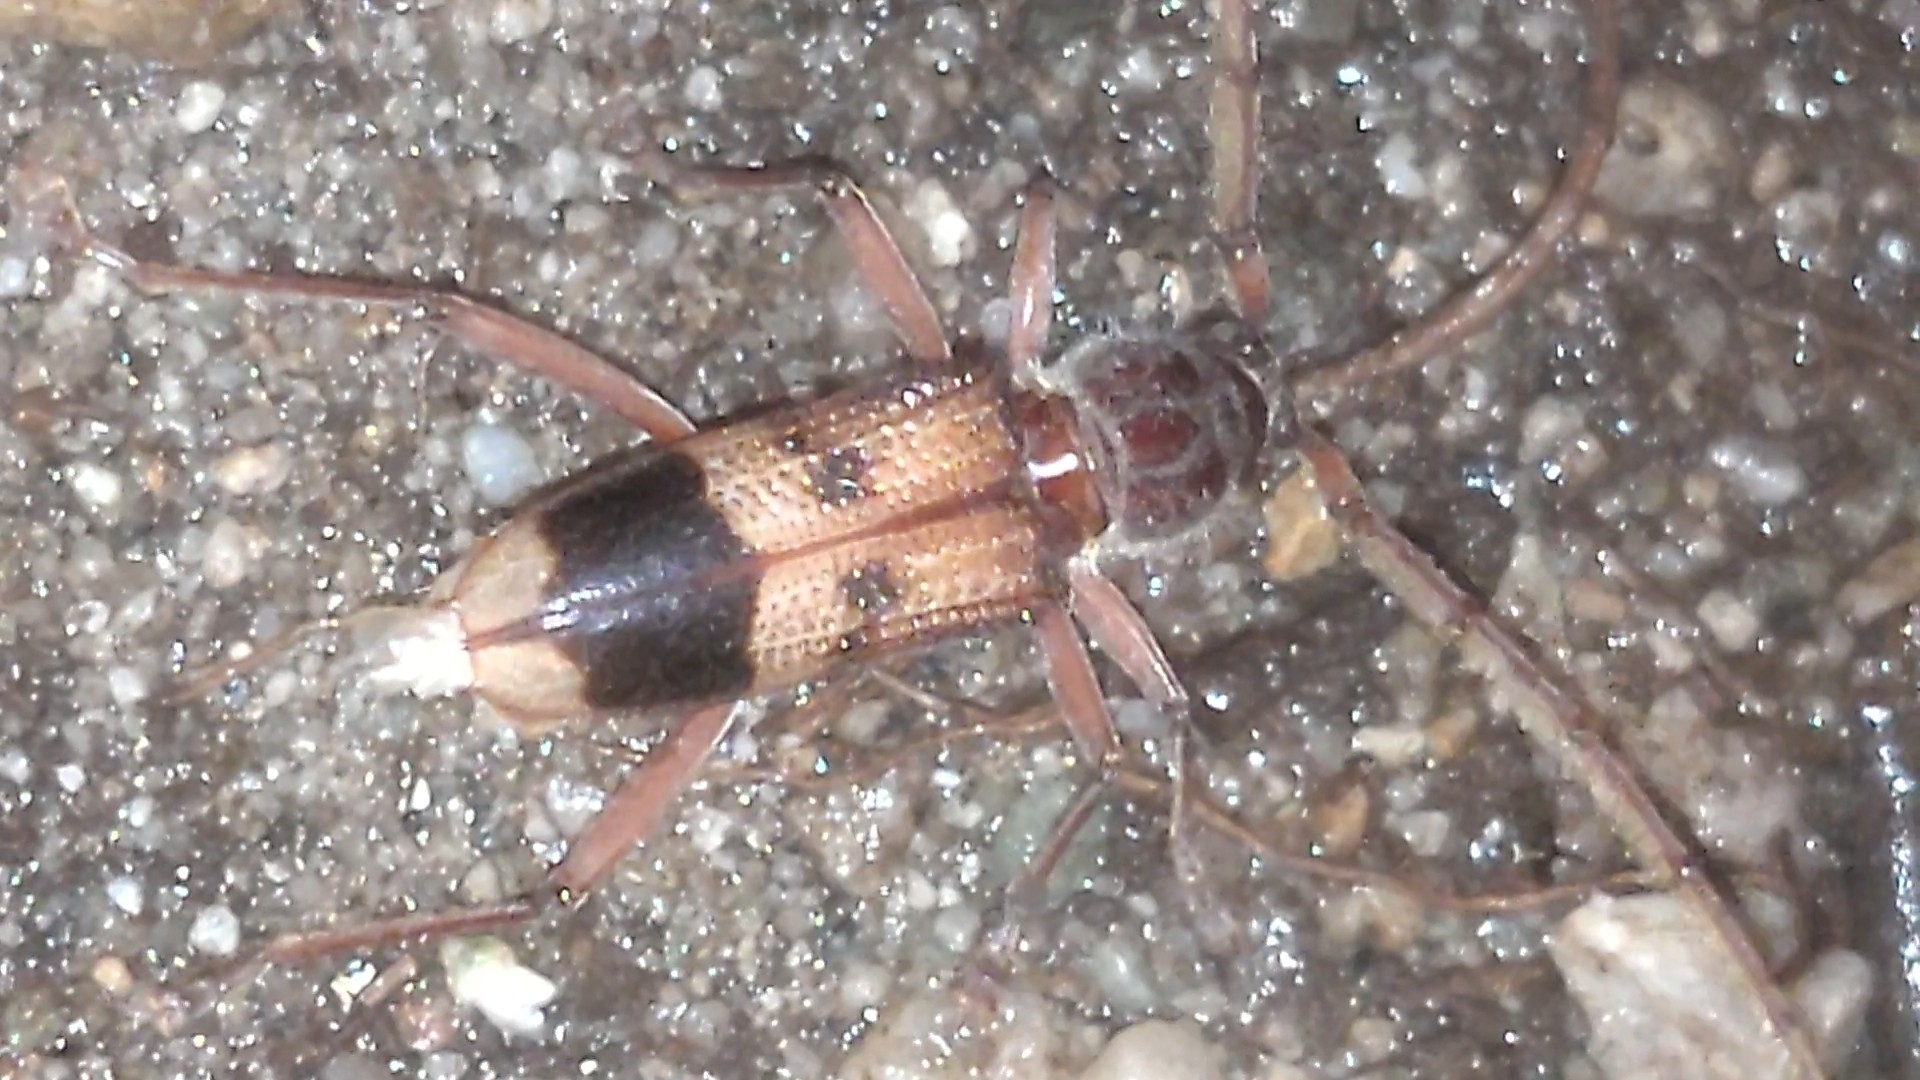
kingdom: Animalia
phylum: Arthropoda
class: Insecta
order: Coleoptera
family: Cerambycidae
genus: Phoracantha
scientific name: Phoracantha recurva
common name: Eucalyptus longhorned borer
